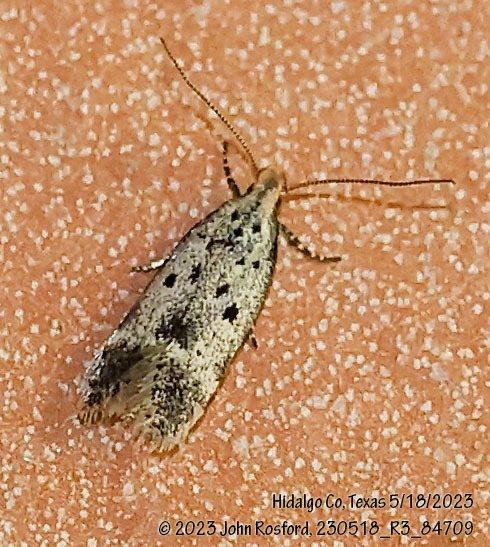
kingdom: Animalia
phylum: Arthropoda
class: Insecta
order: Lepidoptera
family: Gelechiidae
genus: Neodactylota
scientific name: Neodactylota liguritrix
